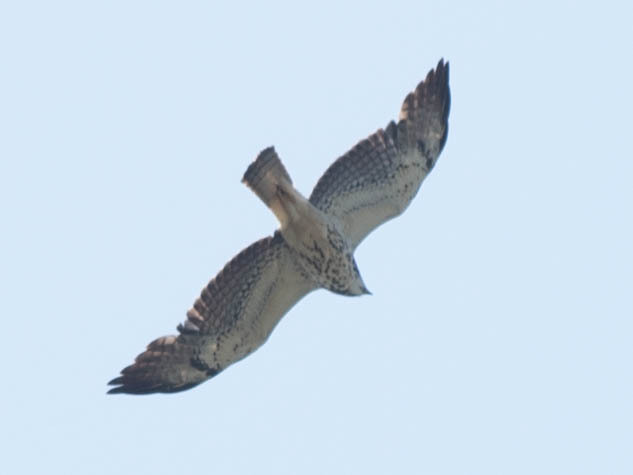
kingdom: Animalia
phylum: Chordata
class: Aves
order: Accipitriformes
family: Accipitridae
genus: Buteo
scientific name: Buteo swainsoni
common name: Swainson's hawk
